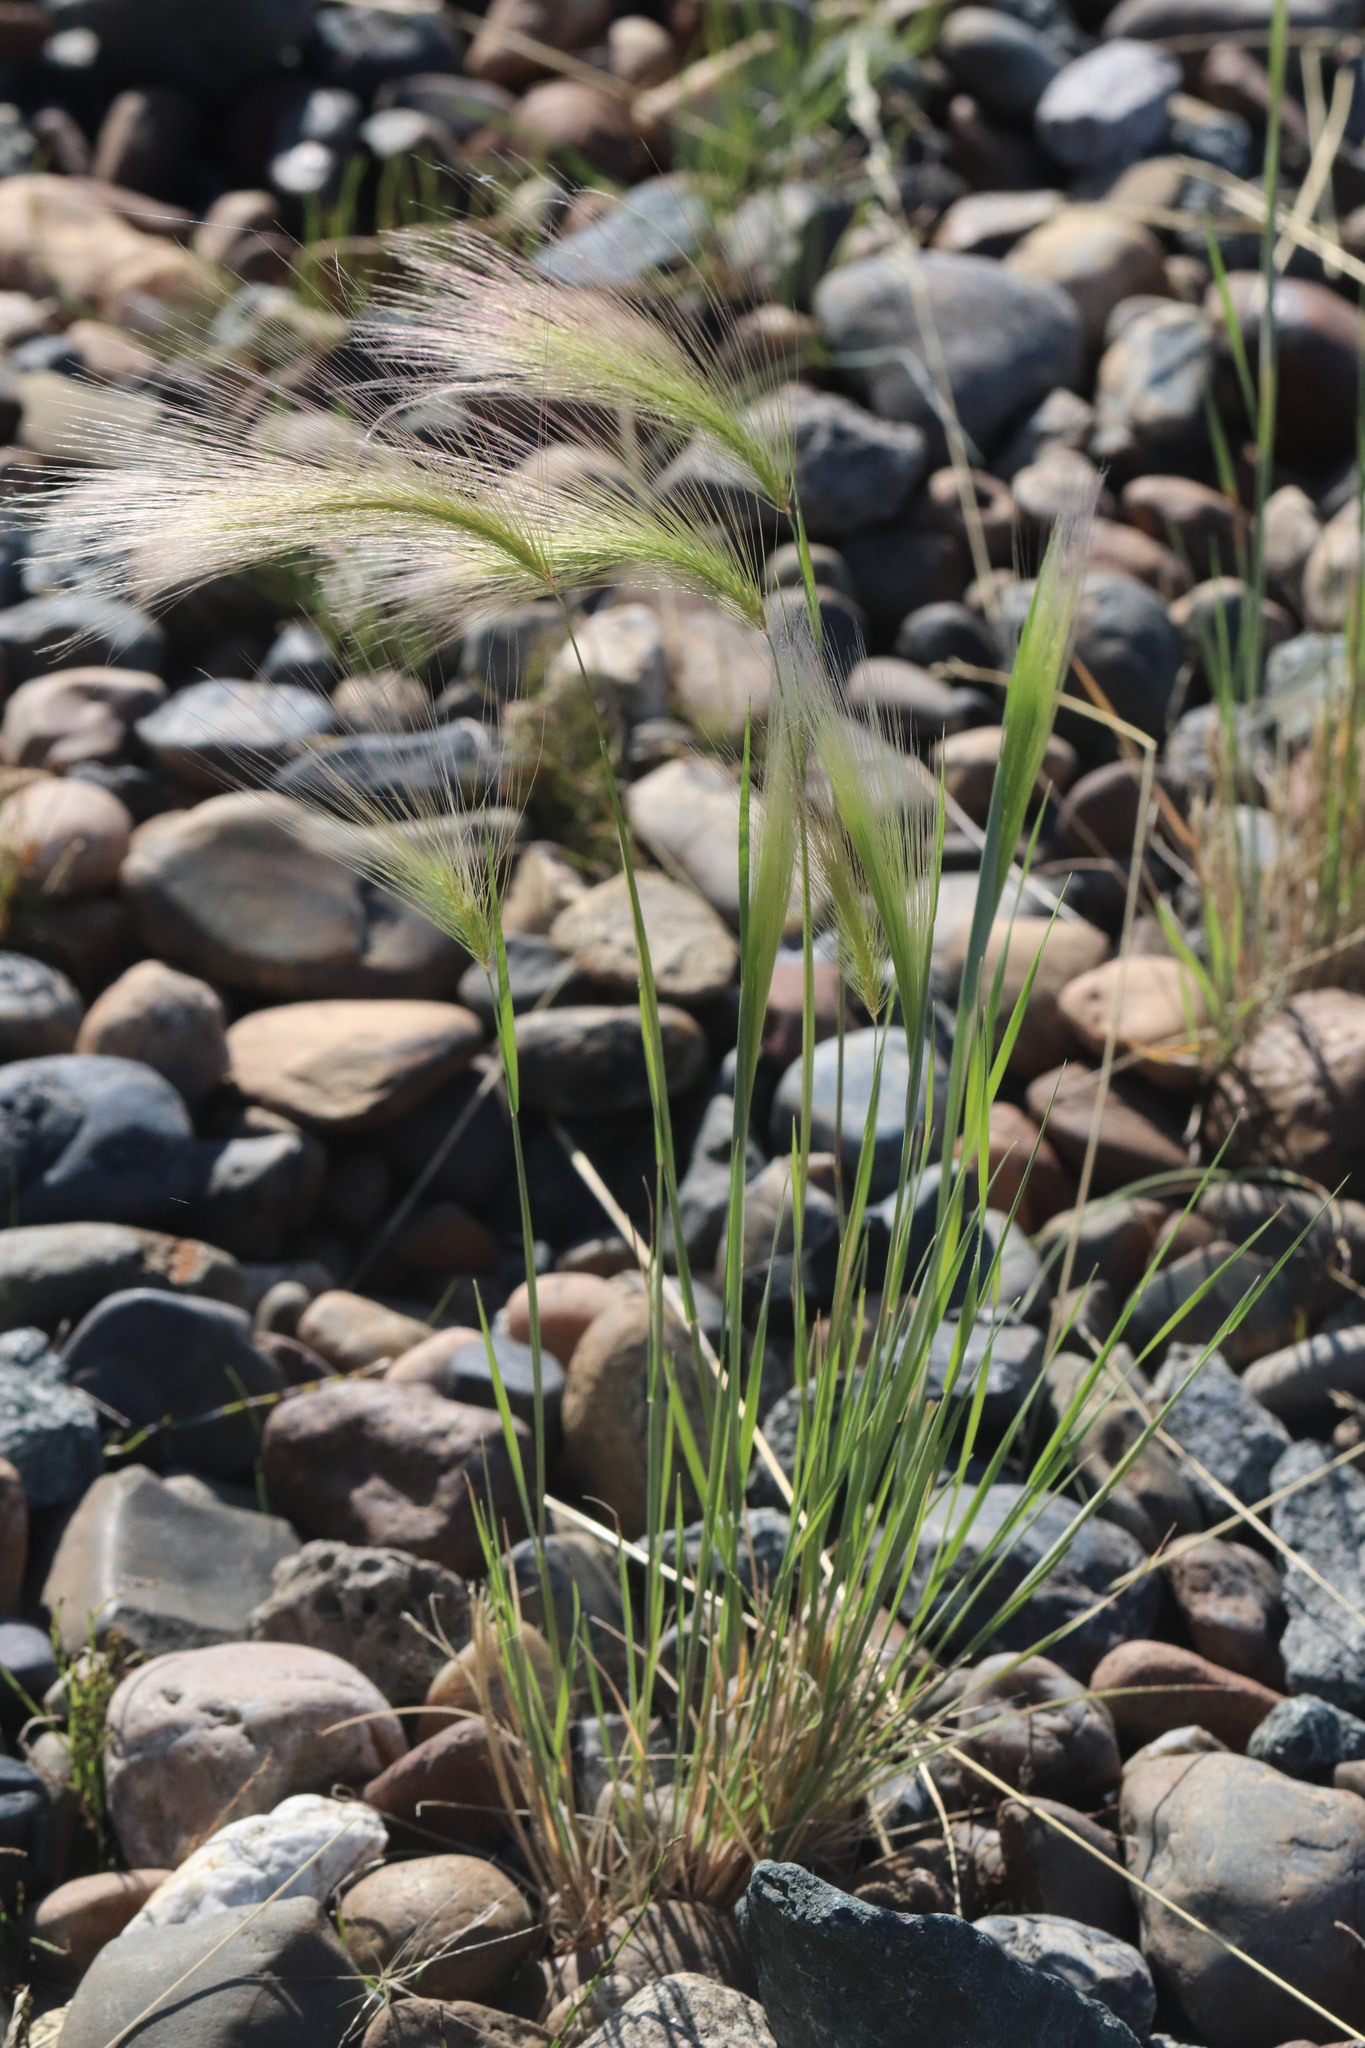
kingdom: Plantae
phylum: Tracheophyta
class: Liliopsida
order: Poales
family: Poaceae
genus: Hordeum
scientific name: Hordeum jubatum
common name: Foxtail barley
